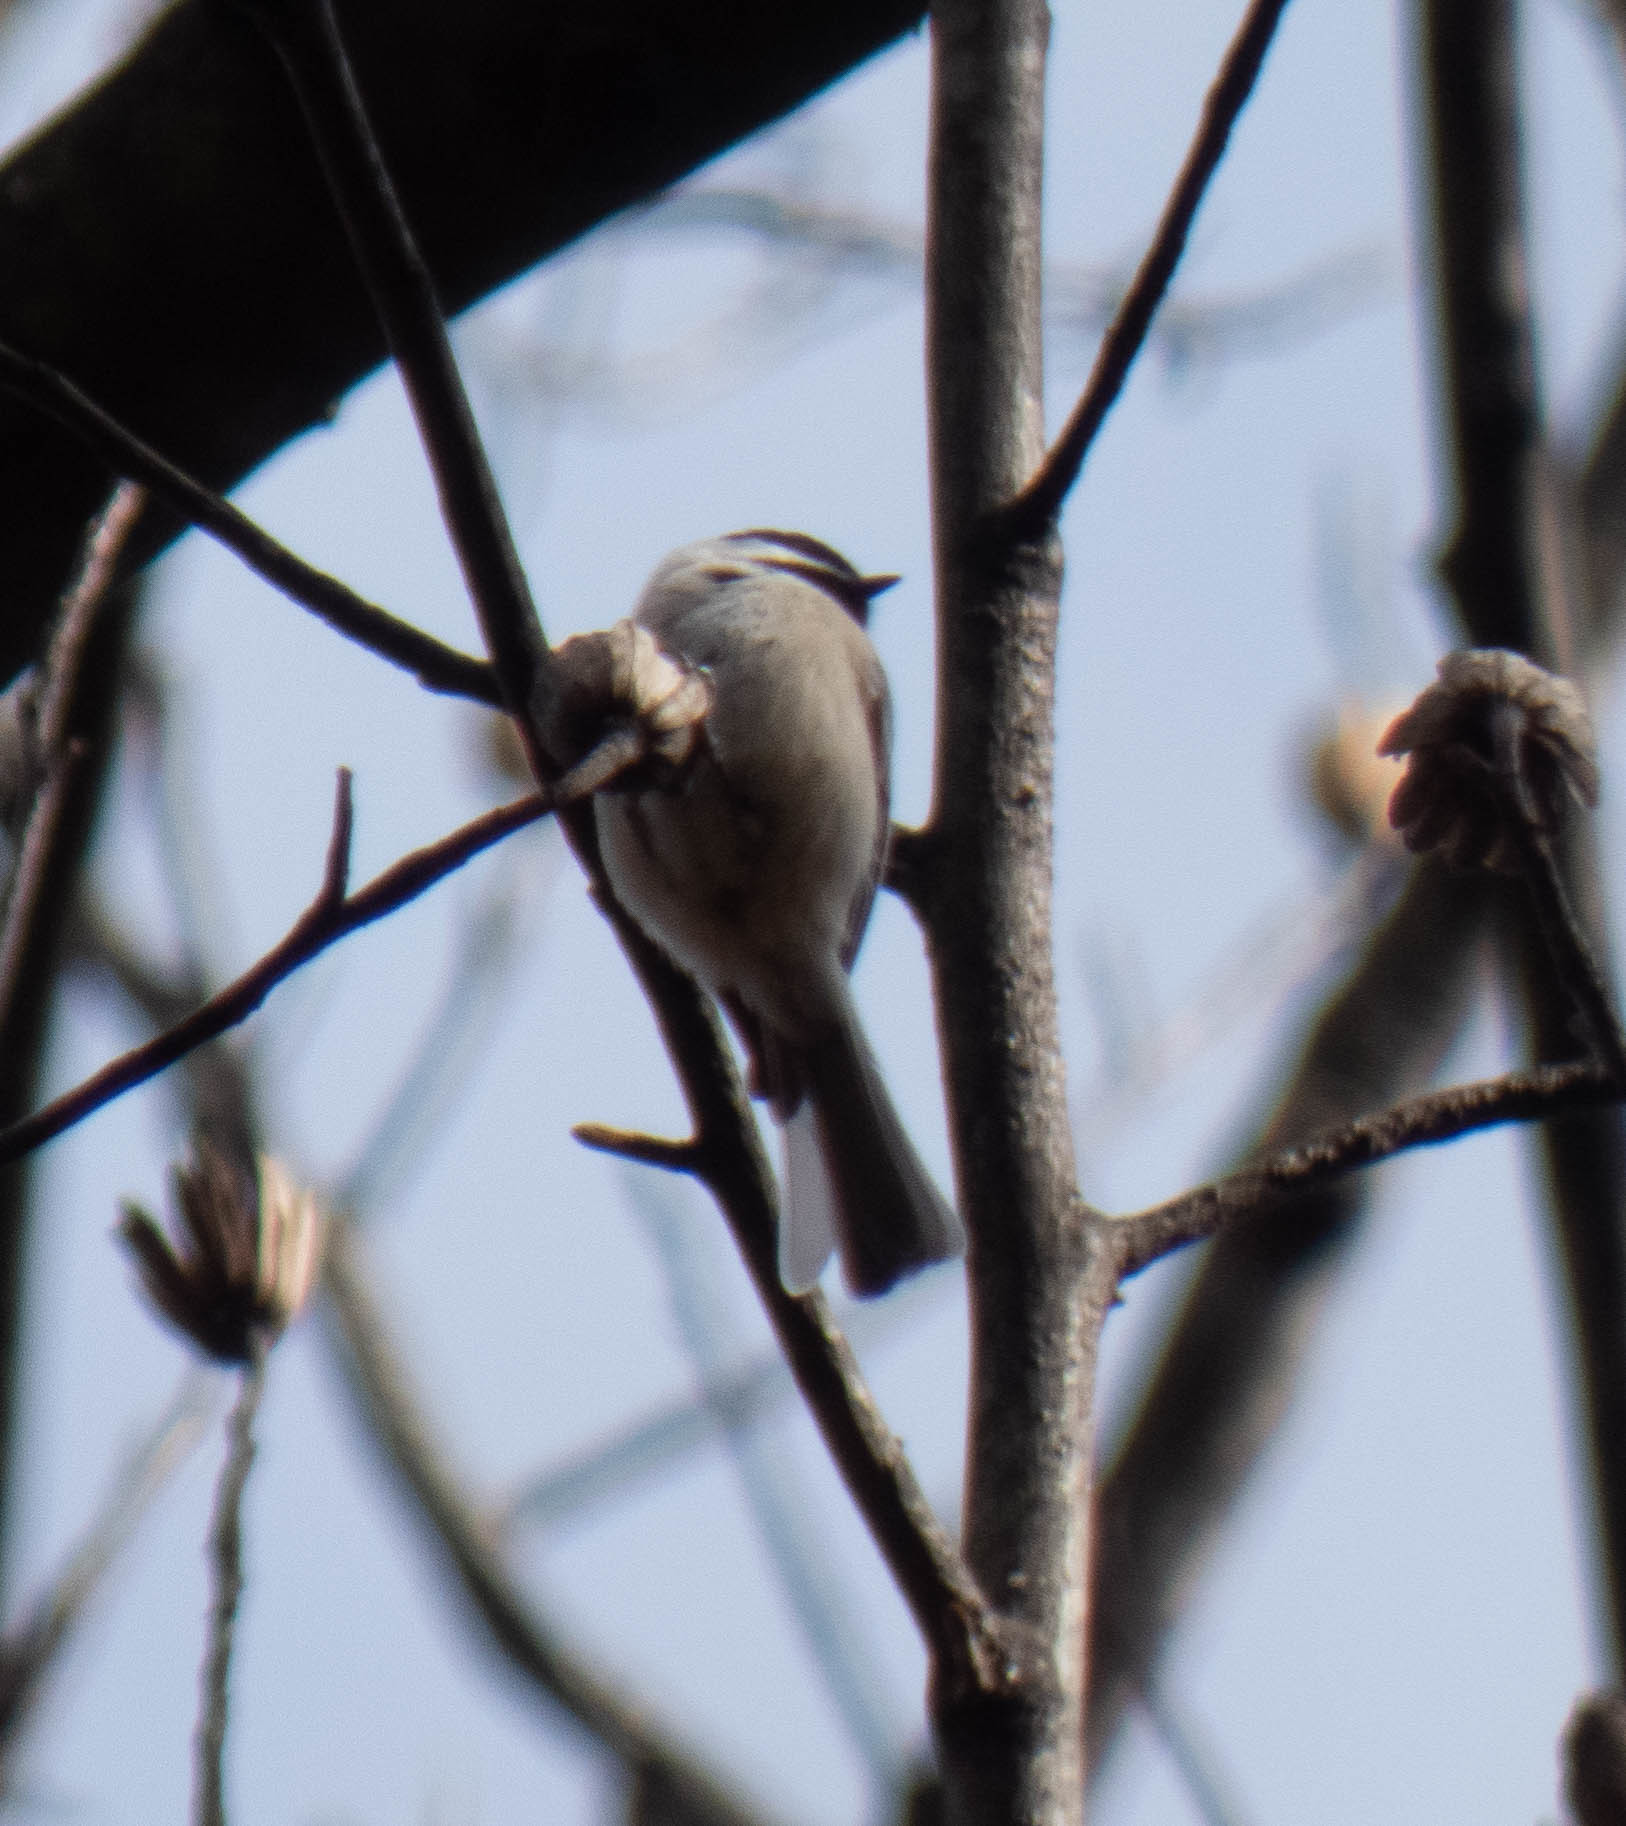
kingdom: Animalia
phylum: Chordata
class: Aves
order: Passeriformes
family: Paridae
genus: Poecile
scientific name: Poecile
